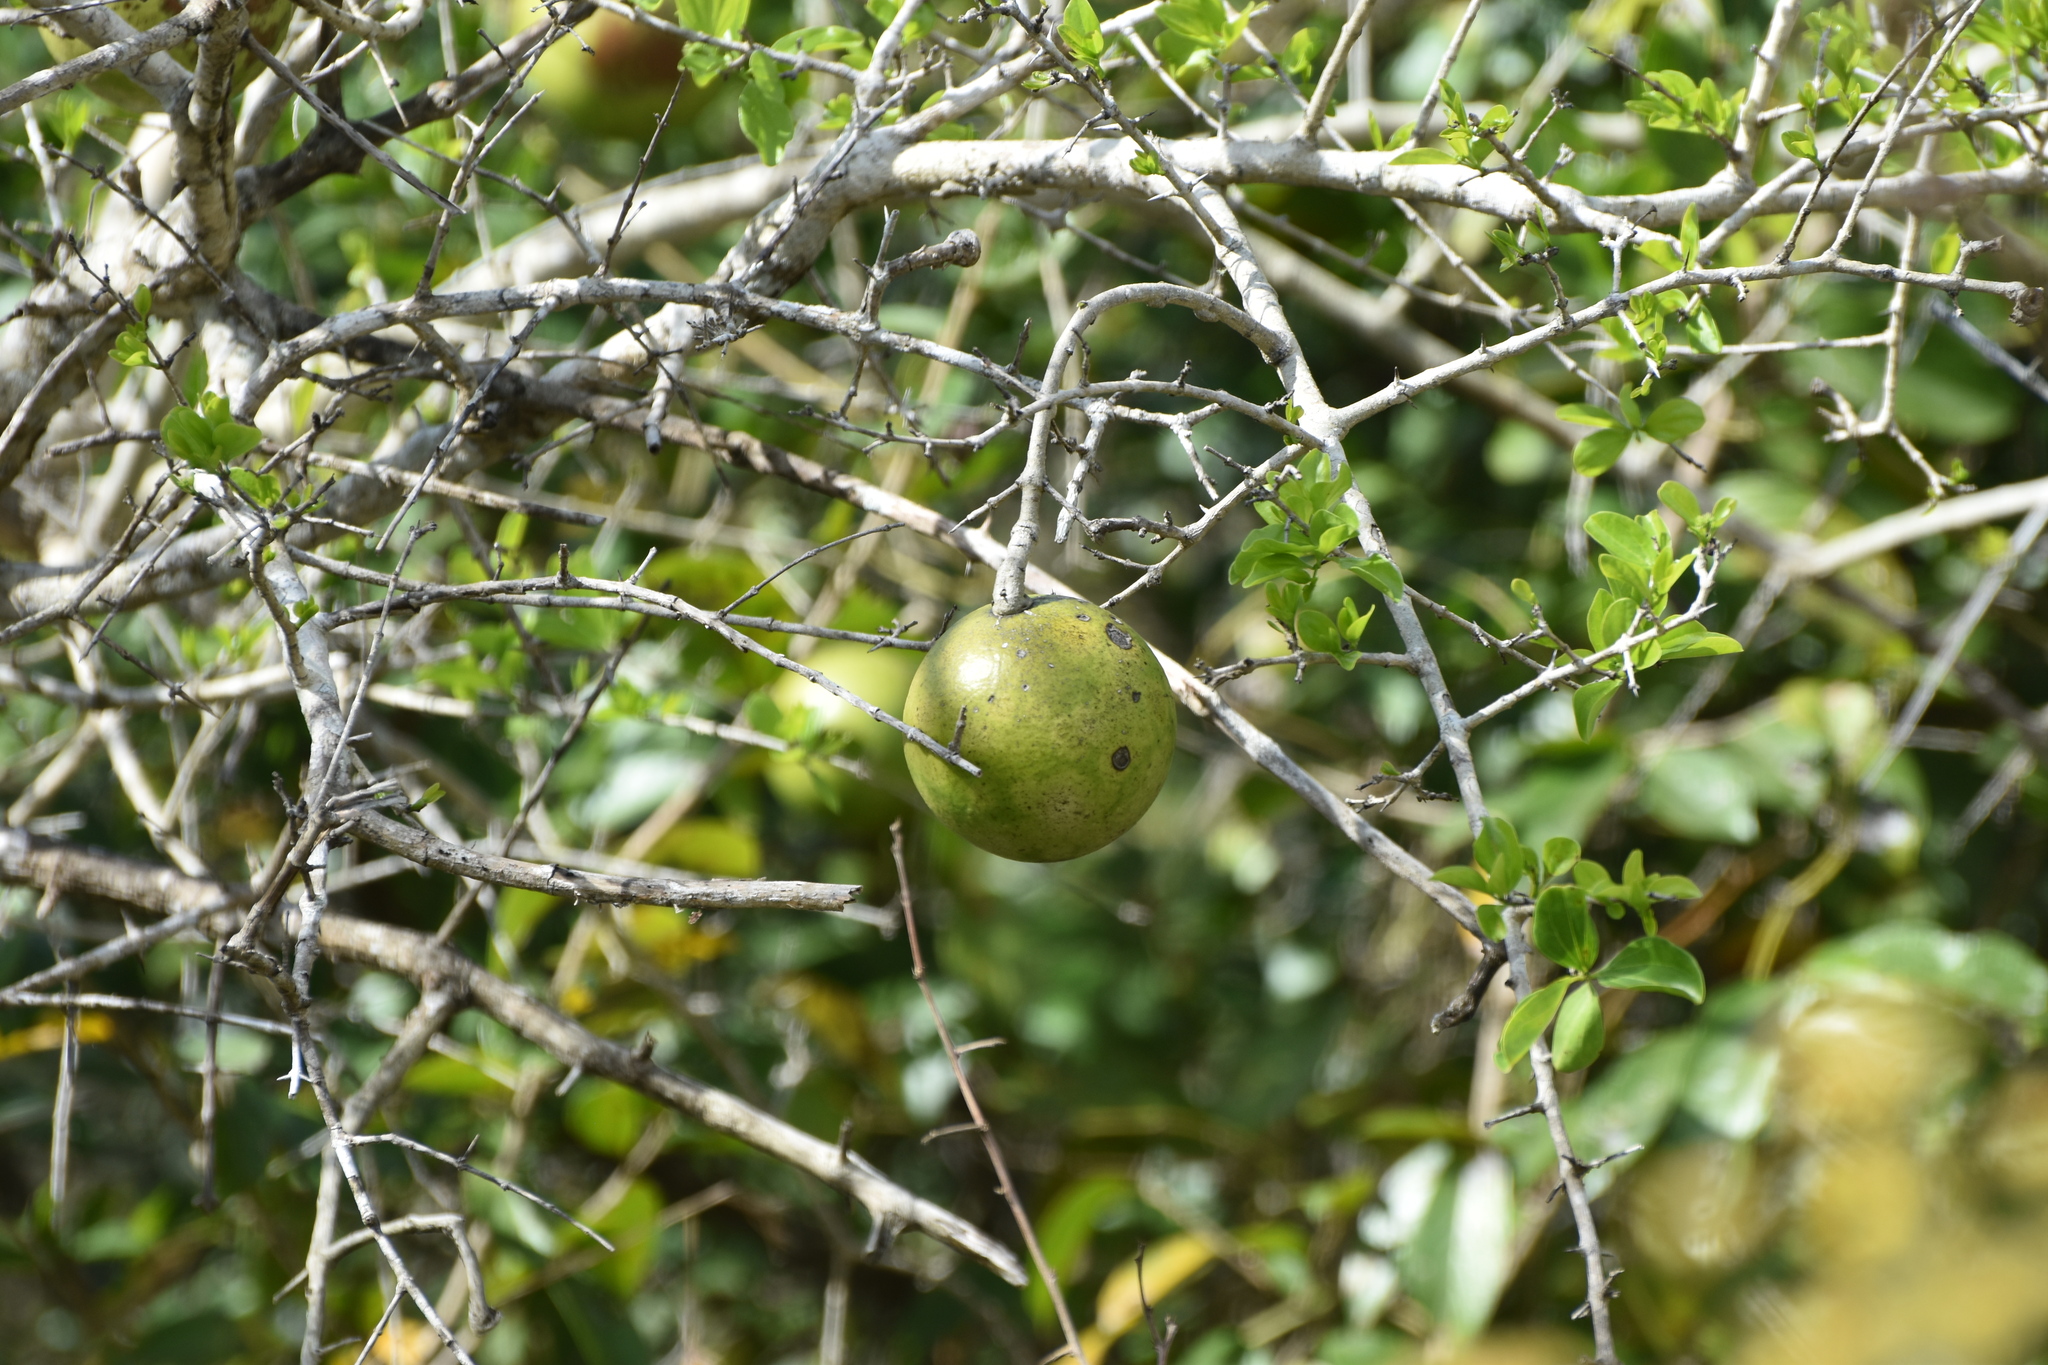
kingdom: Plantae
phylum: Tracheophyta
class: Magnoliopsida
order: Gentianales
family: Loganiaceae
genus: Strychnos
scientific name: Strychnos spinosa
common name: Natal orange
